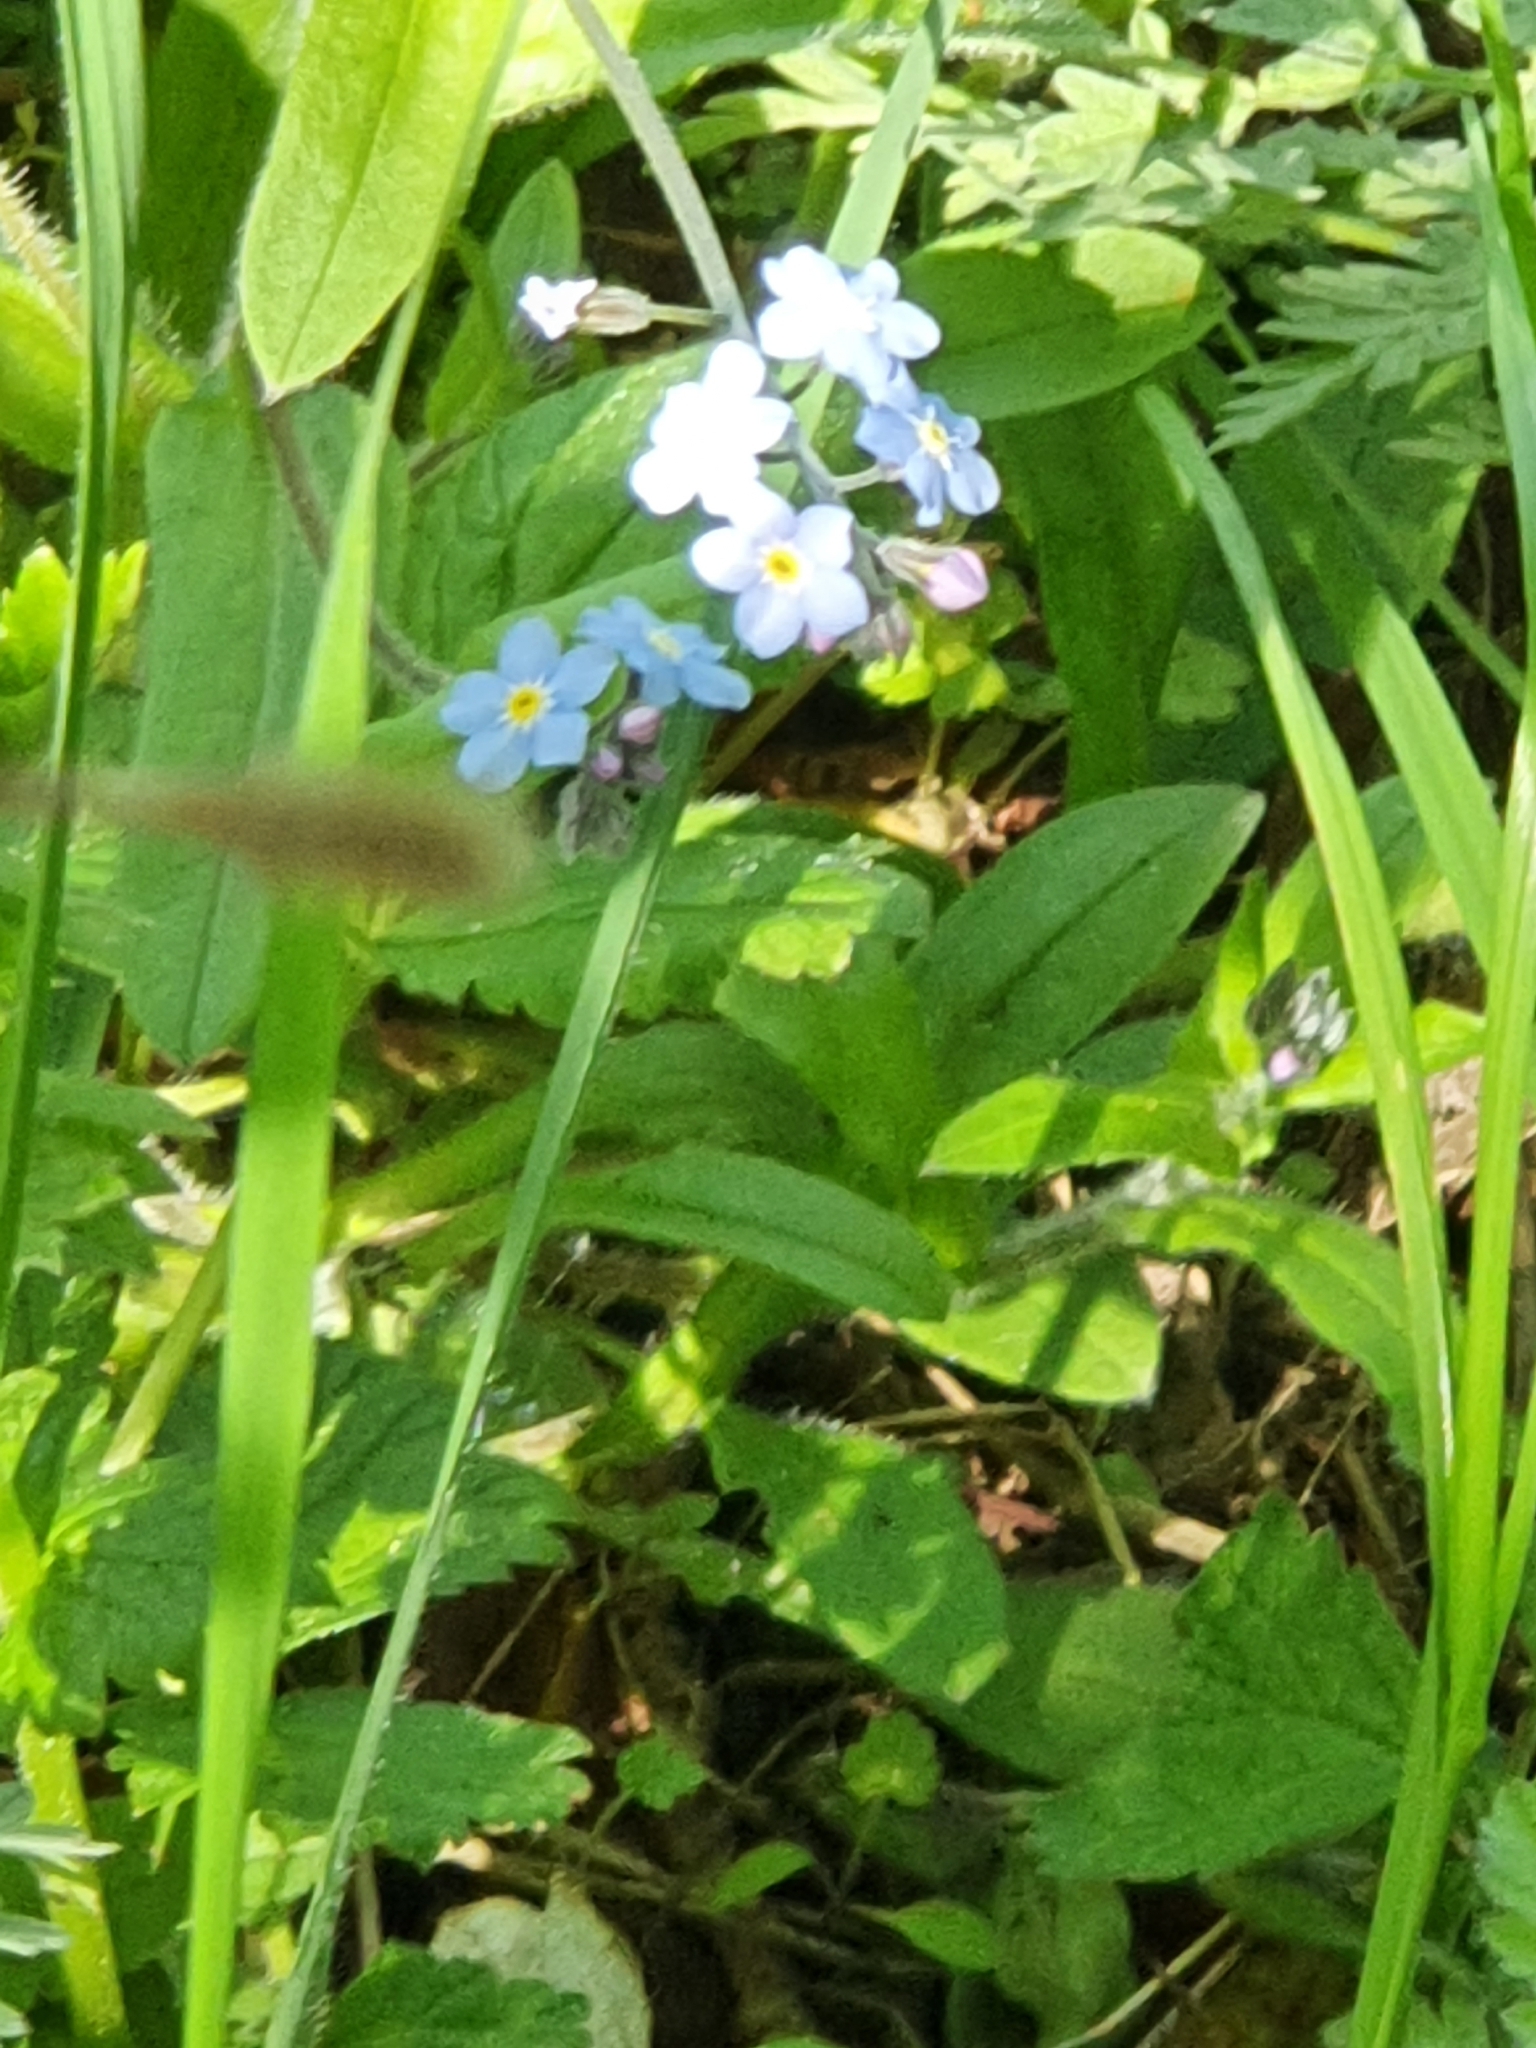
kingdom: Plantae
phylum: Tracheophyta
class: Magnoliopsida
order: Boraginales
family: Boraginaceae
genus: Myosotis
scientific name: Myosotis sylvatica
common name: Wood forget-me-not
